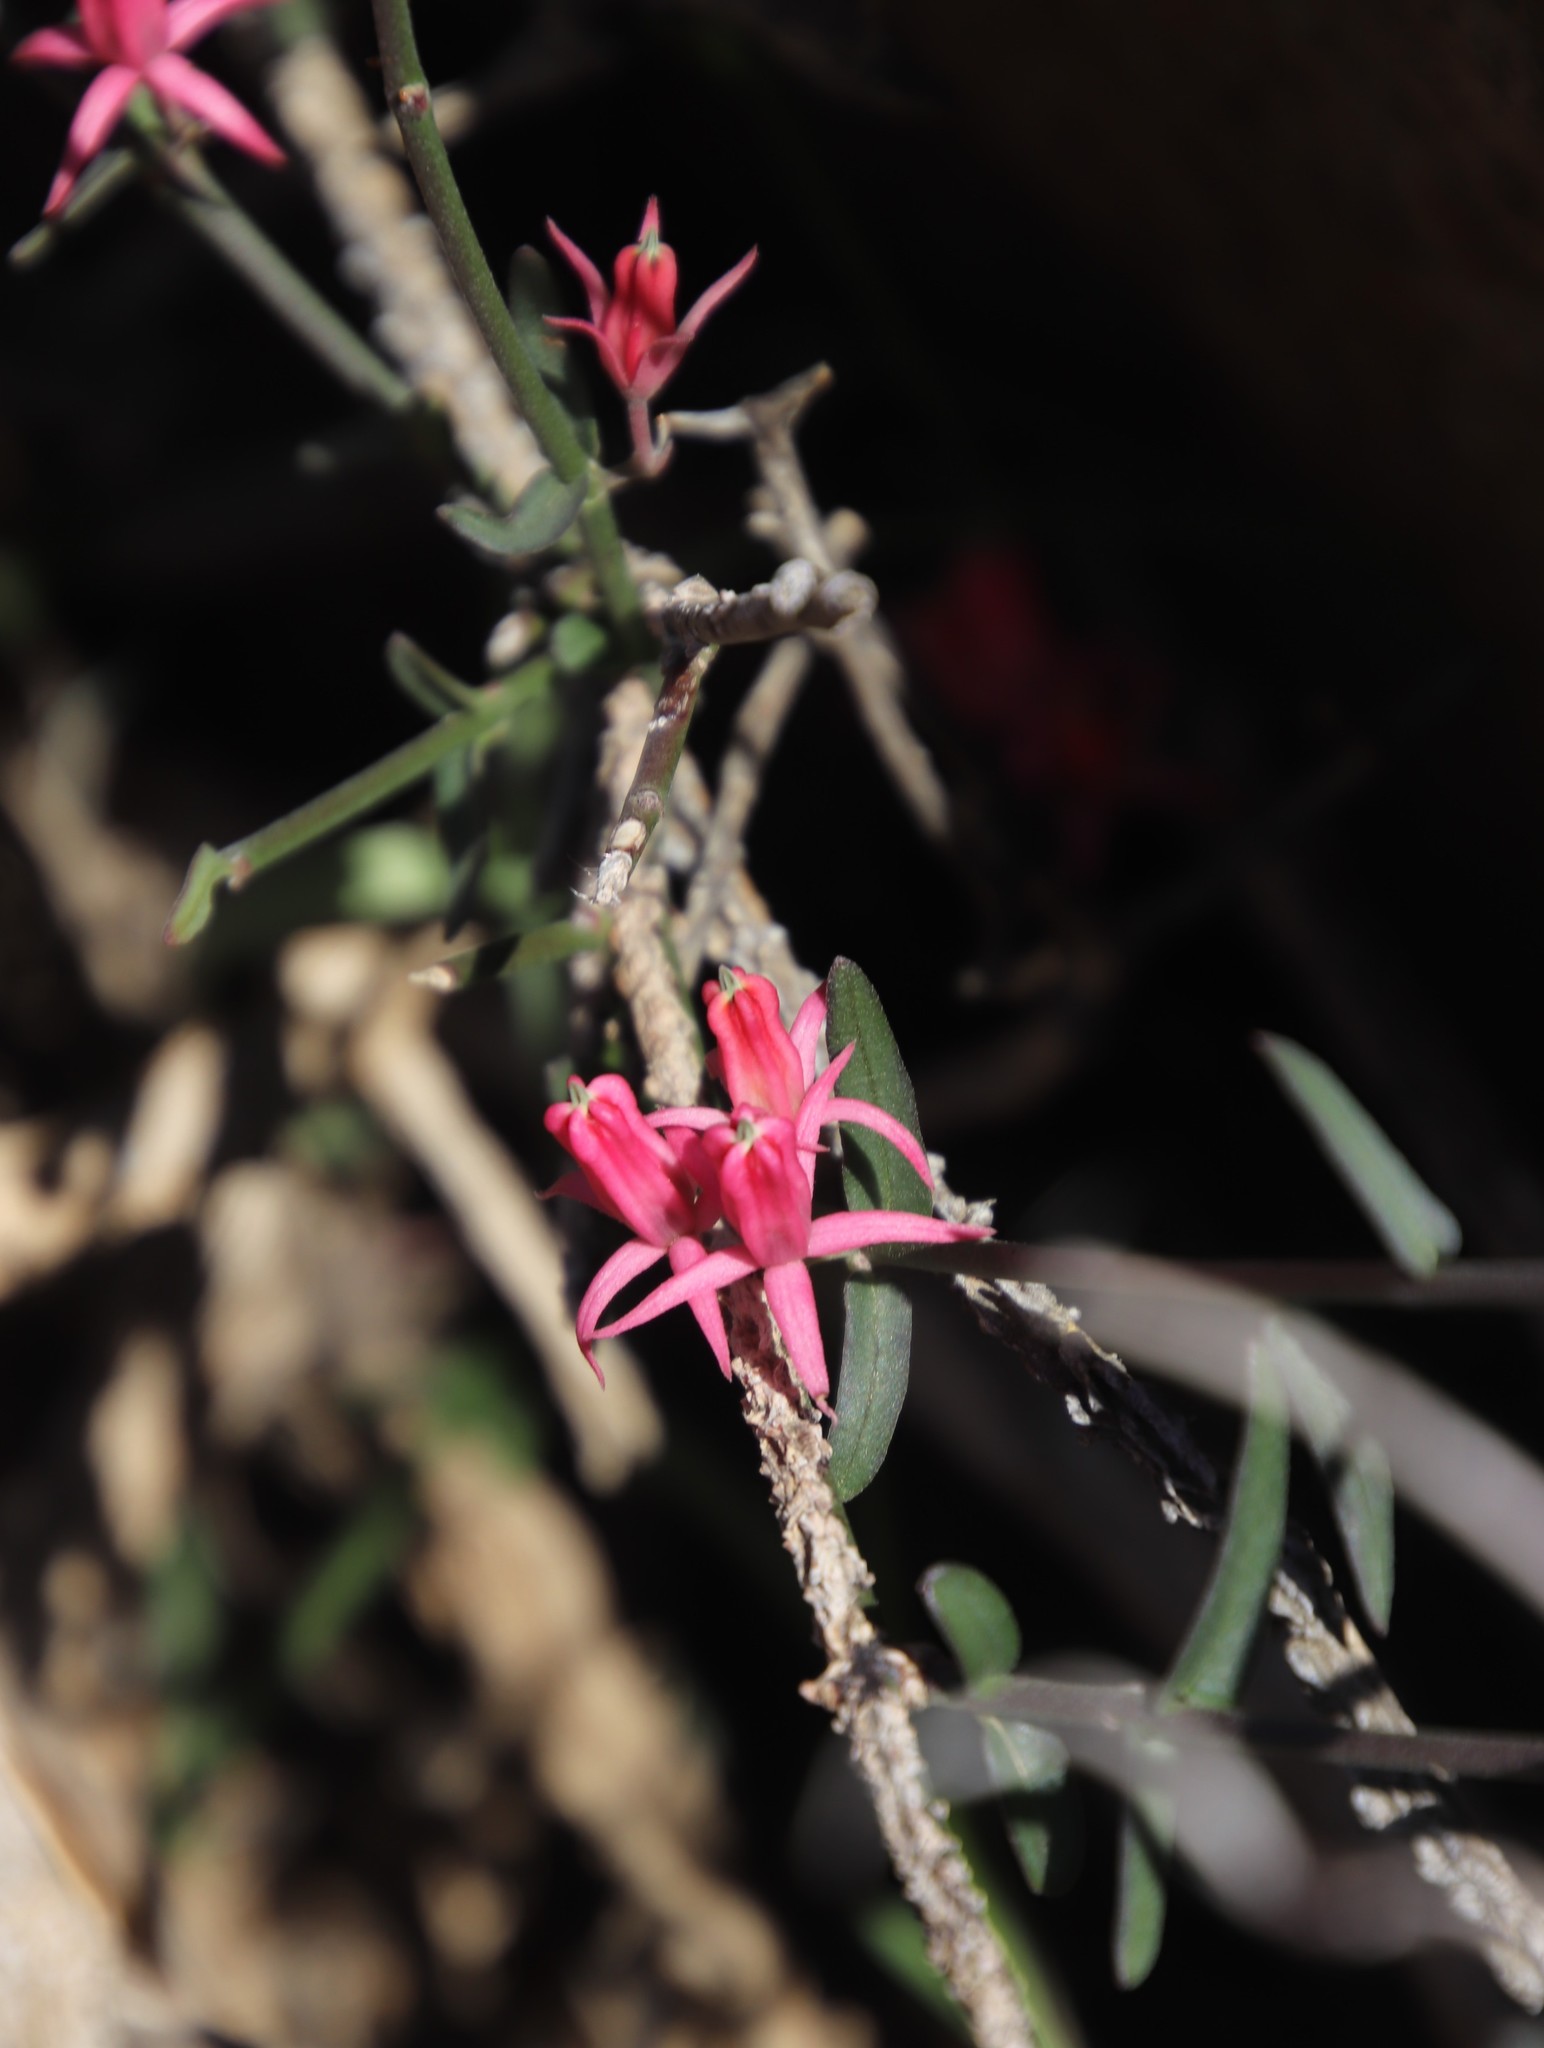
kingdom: Plantae
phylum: Tracheophyta
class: Magnoliopsida
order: Gentianales
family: Apocynaceae
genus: Microloma
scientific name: Microloma sagittatum
